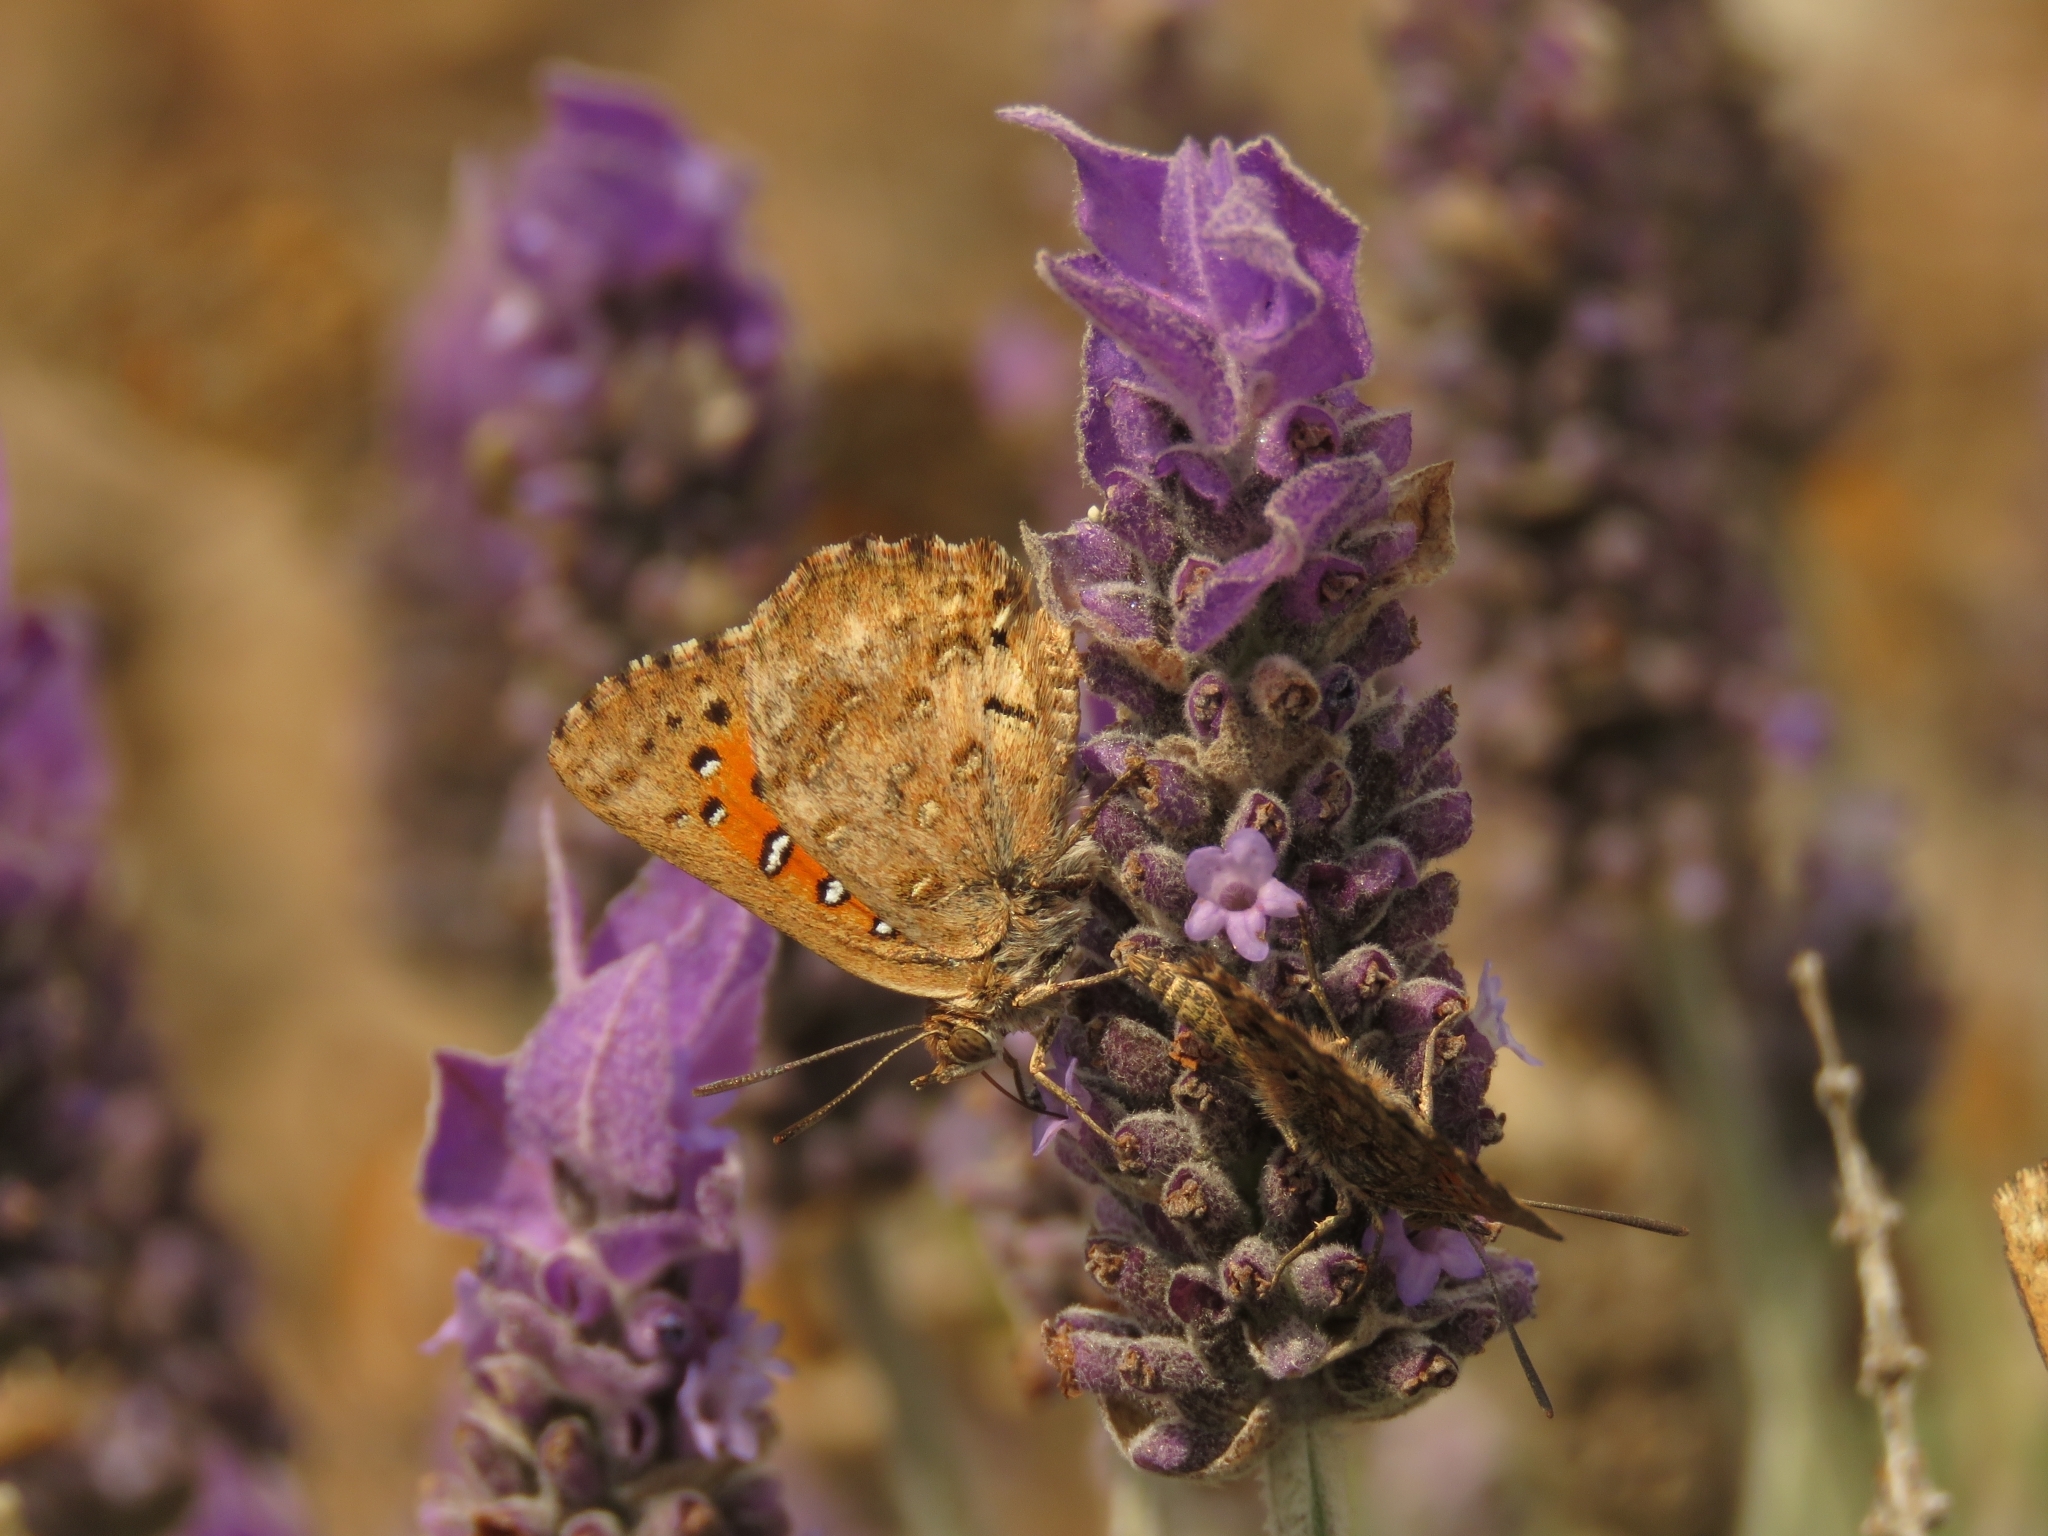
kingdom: Animalia
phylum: Arthropoda
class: Insecta
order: Lepidoptera
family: Lycaenidae
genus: Aloeides
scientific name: Aloeides pierus
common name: Dull copper
